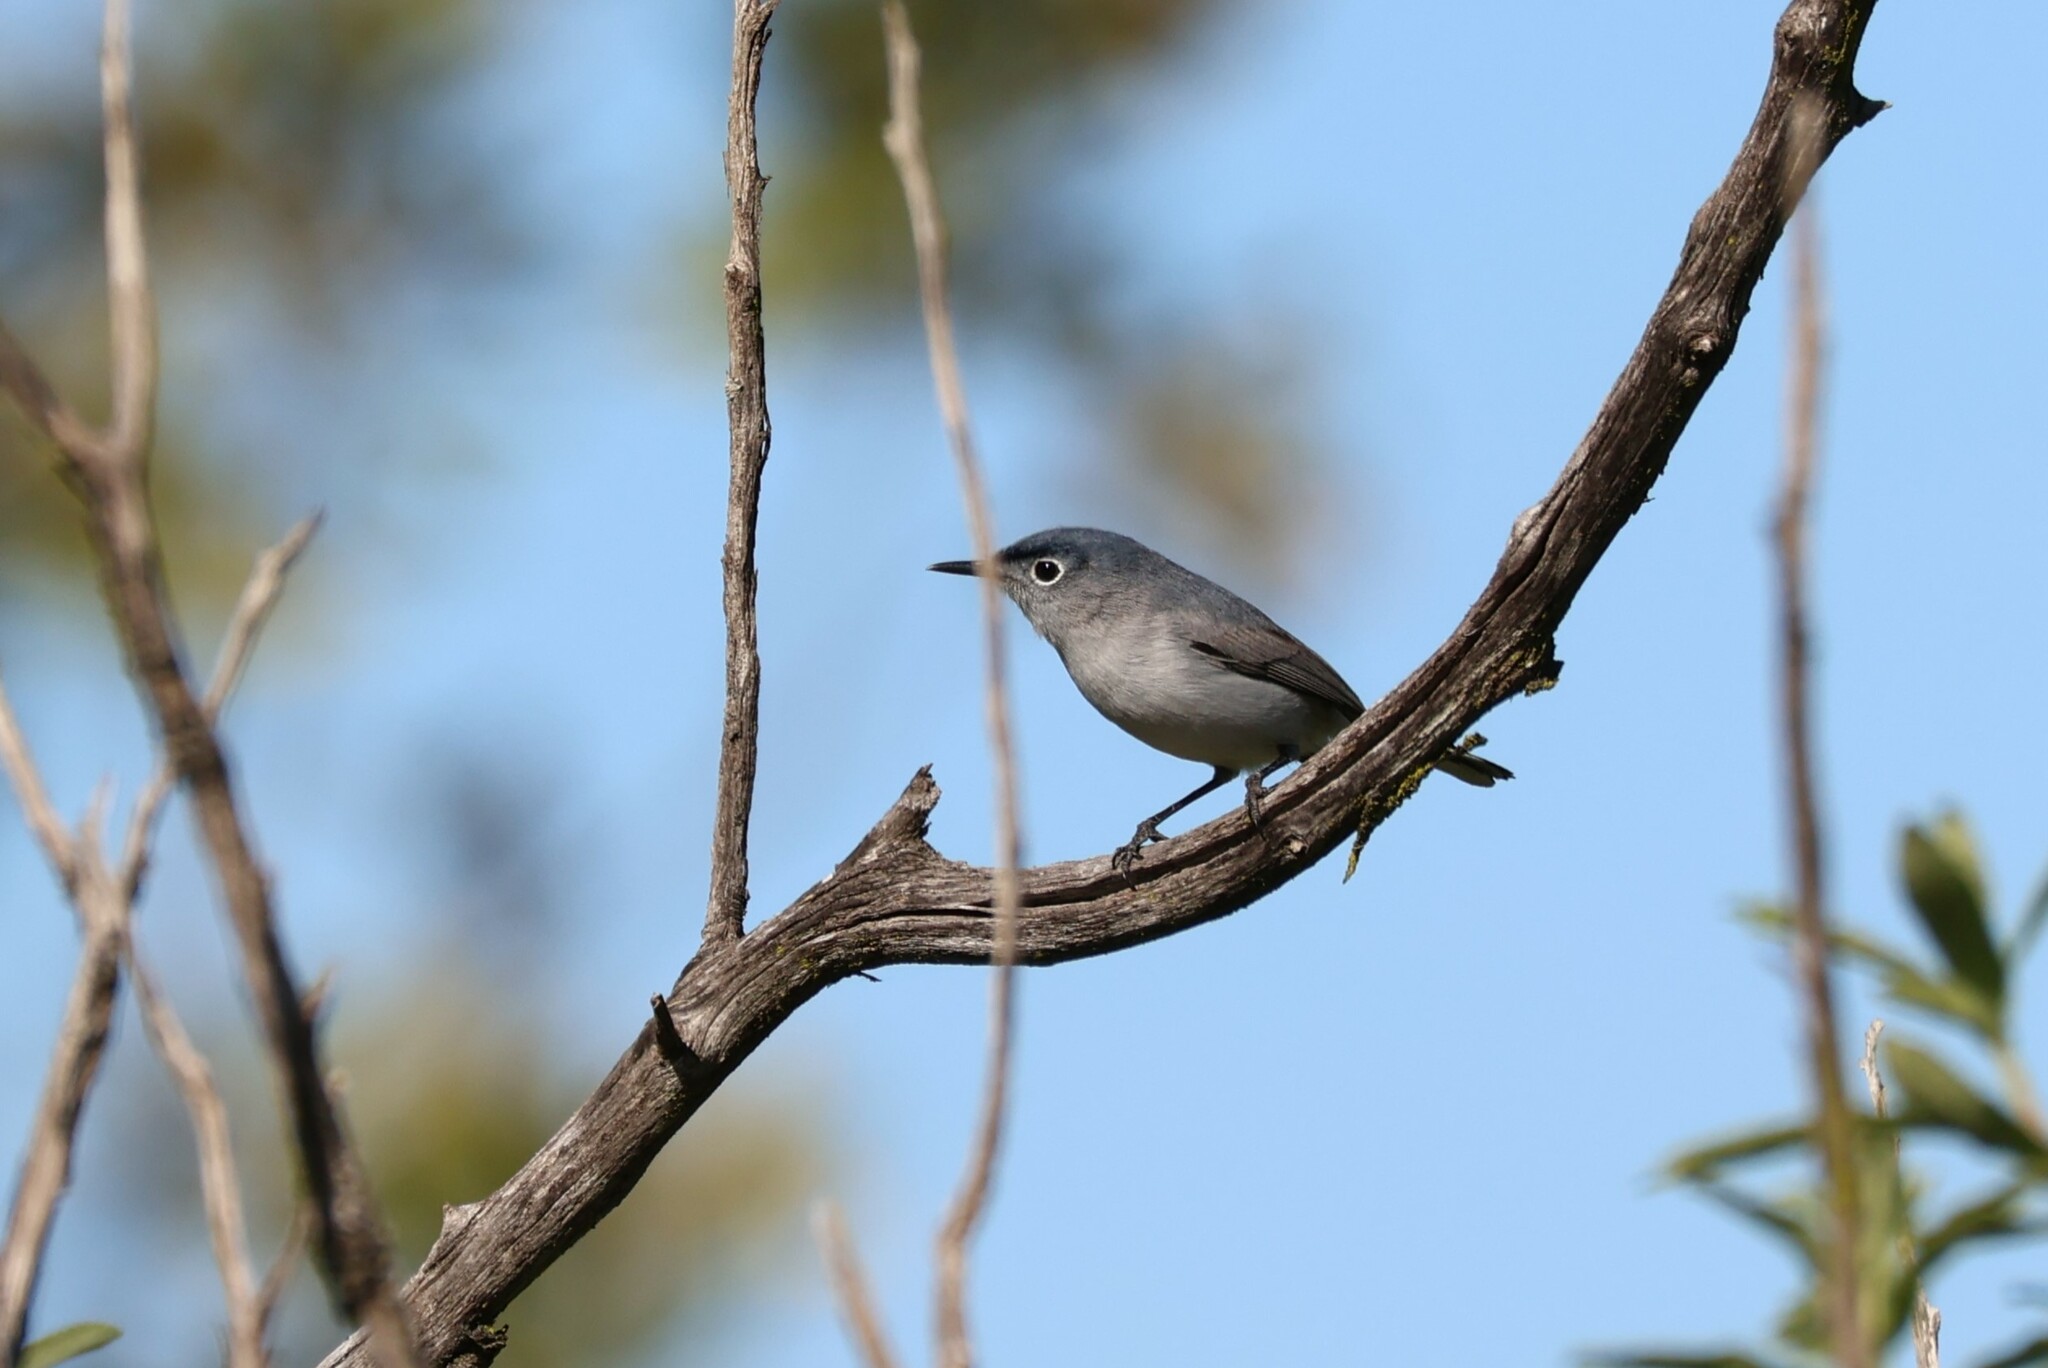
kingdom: Animalia
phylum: Chordata
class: Aves
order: Passeriformes
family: Polioptilidae
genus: Polioptila
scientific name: Polioptila caerulea
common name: Blue-gray gnatcatcher
